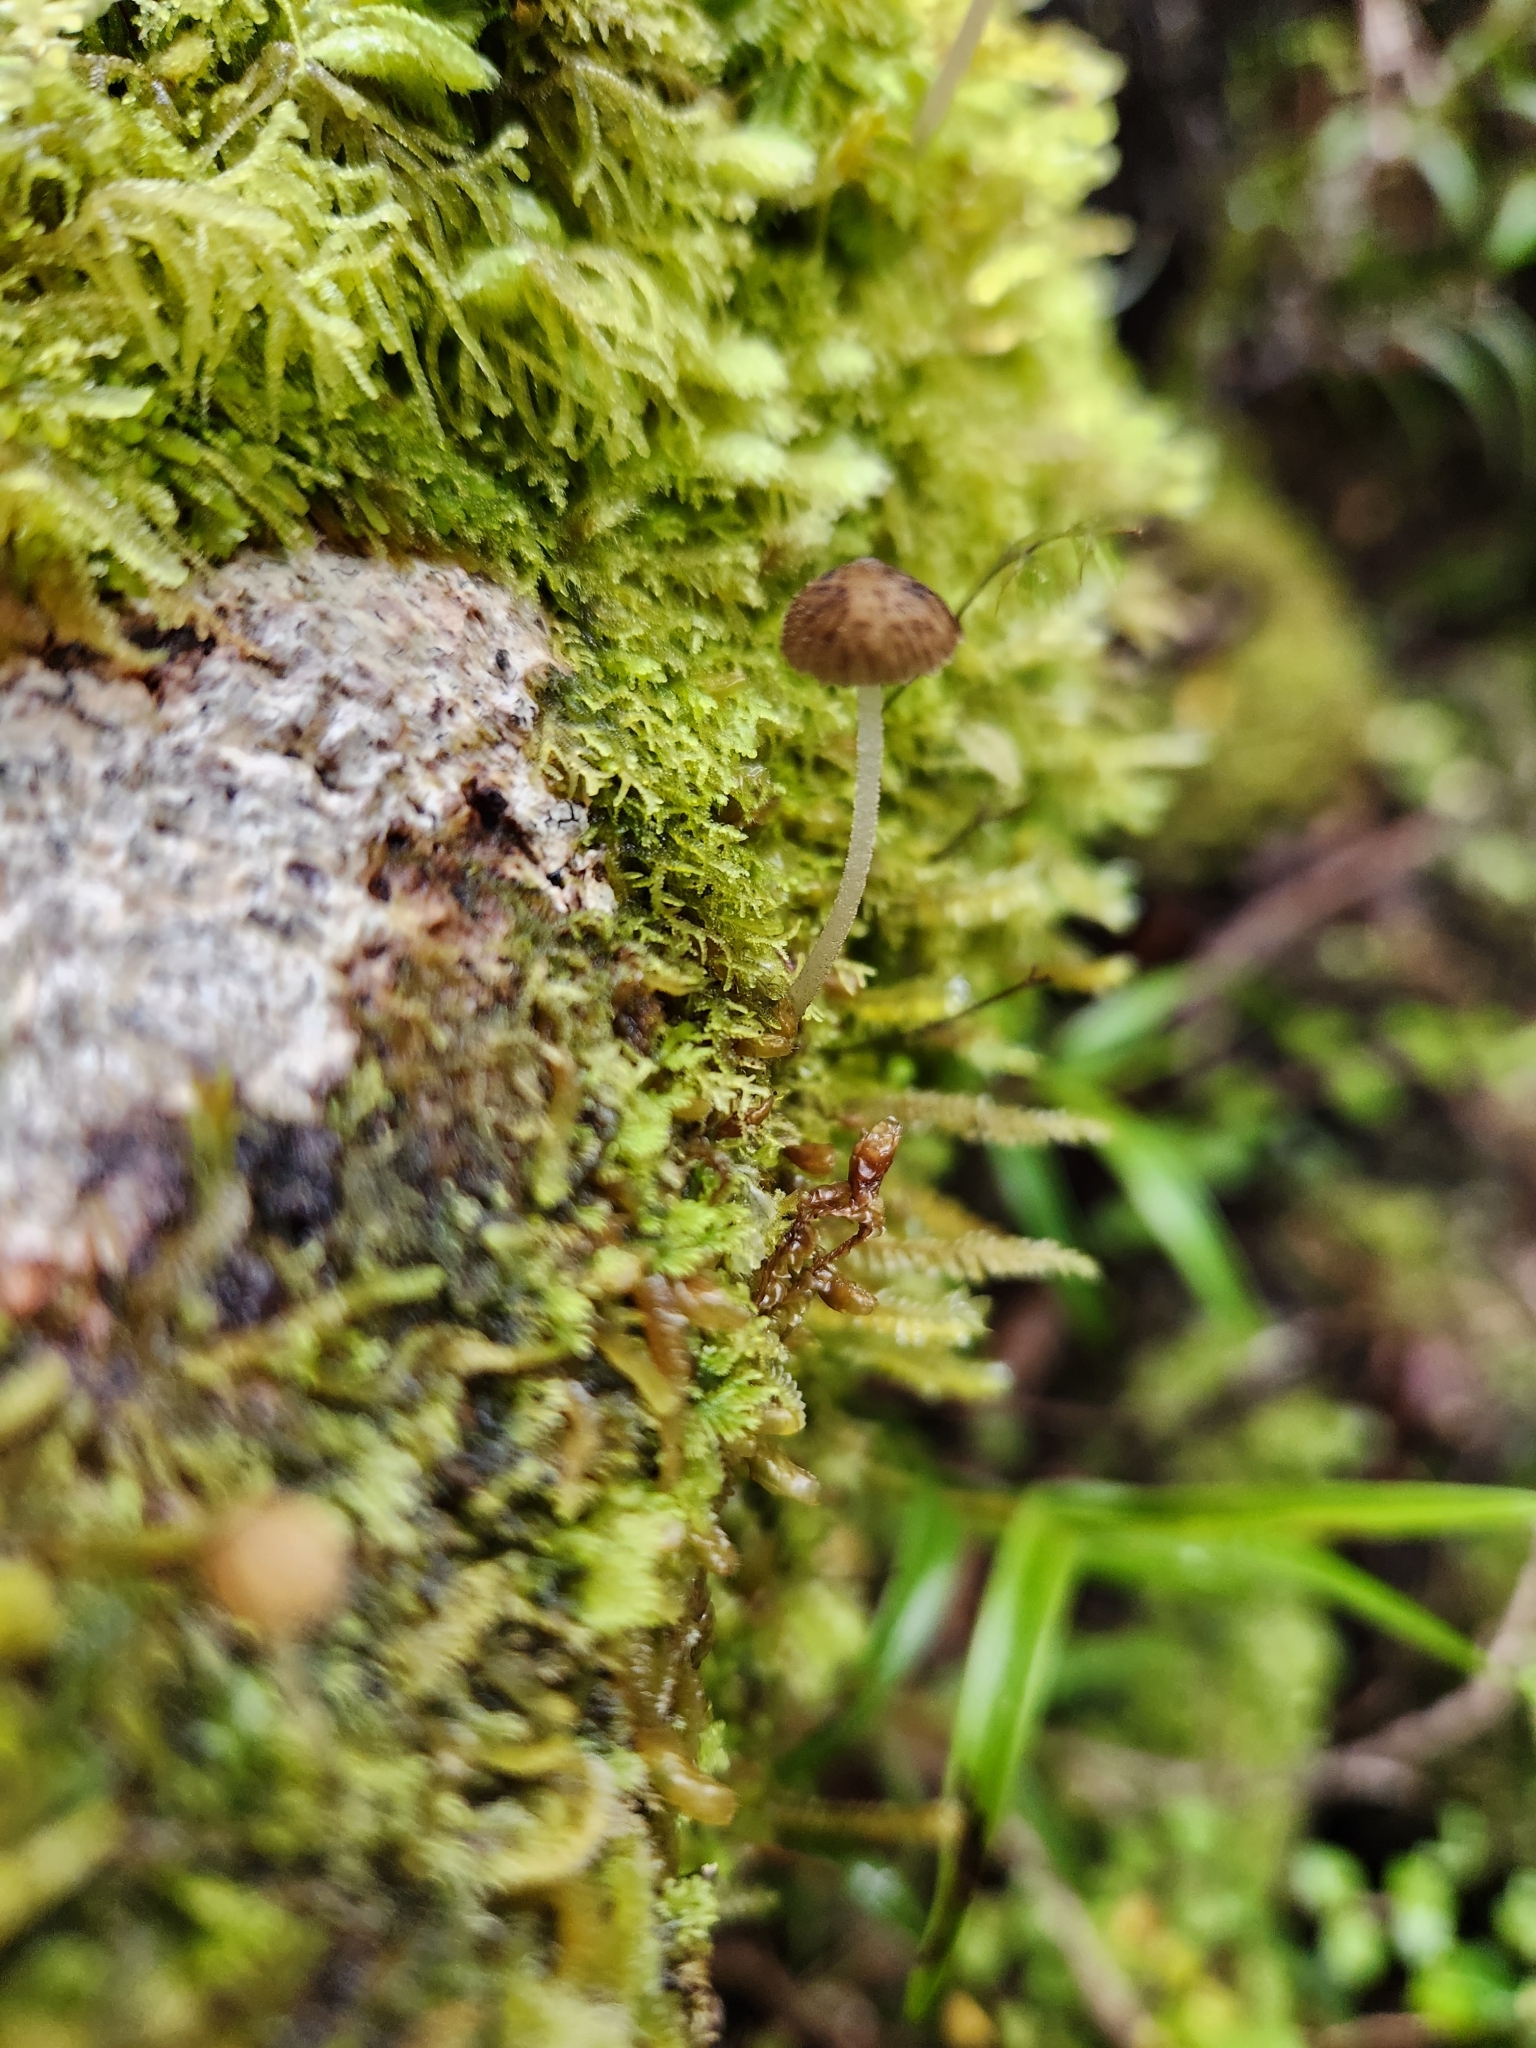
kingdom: Fungi
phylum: Basidiomycota
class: Agaricomycetes
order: Agaricales
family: Porotheleaceae
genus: Pseudohydropus
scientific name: Pseudohydropus parafunebris
